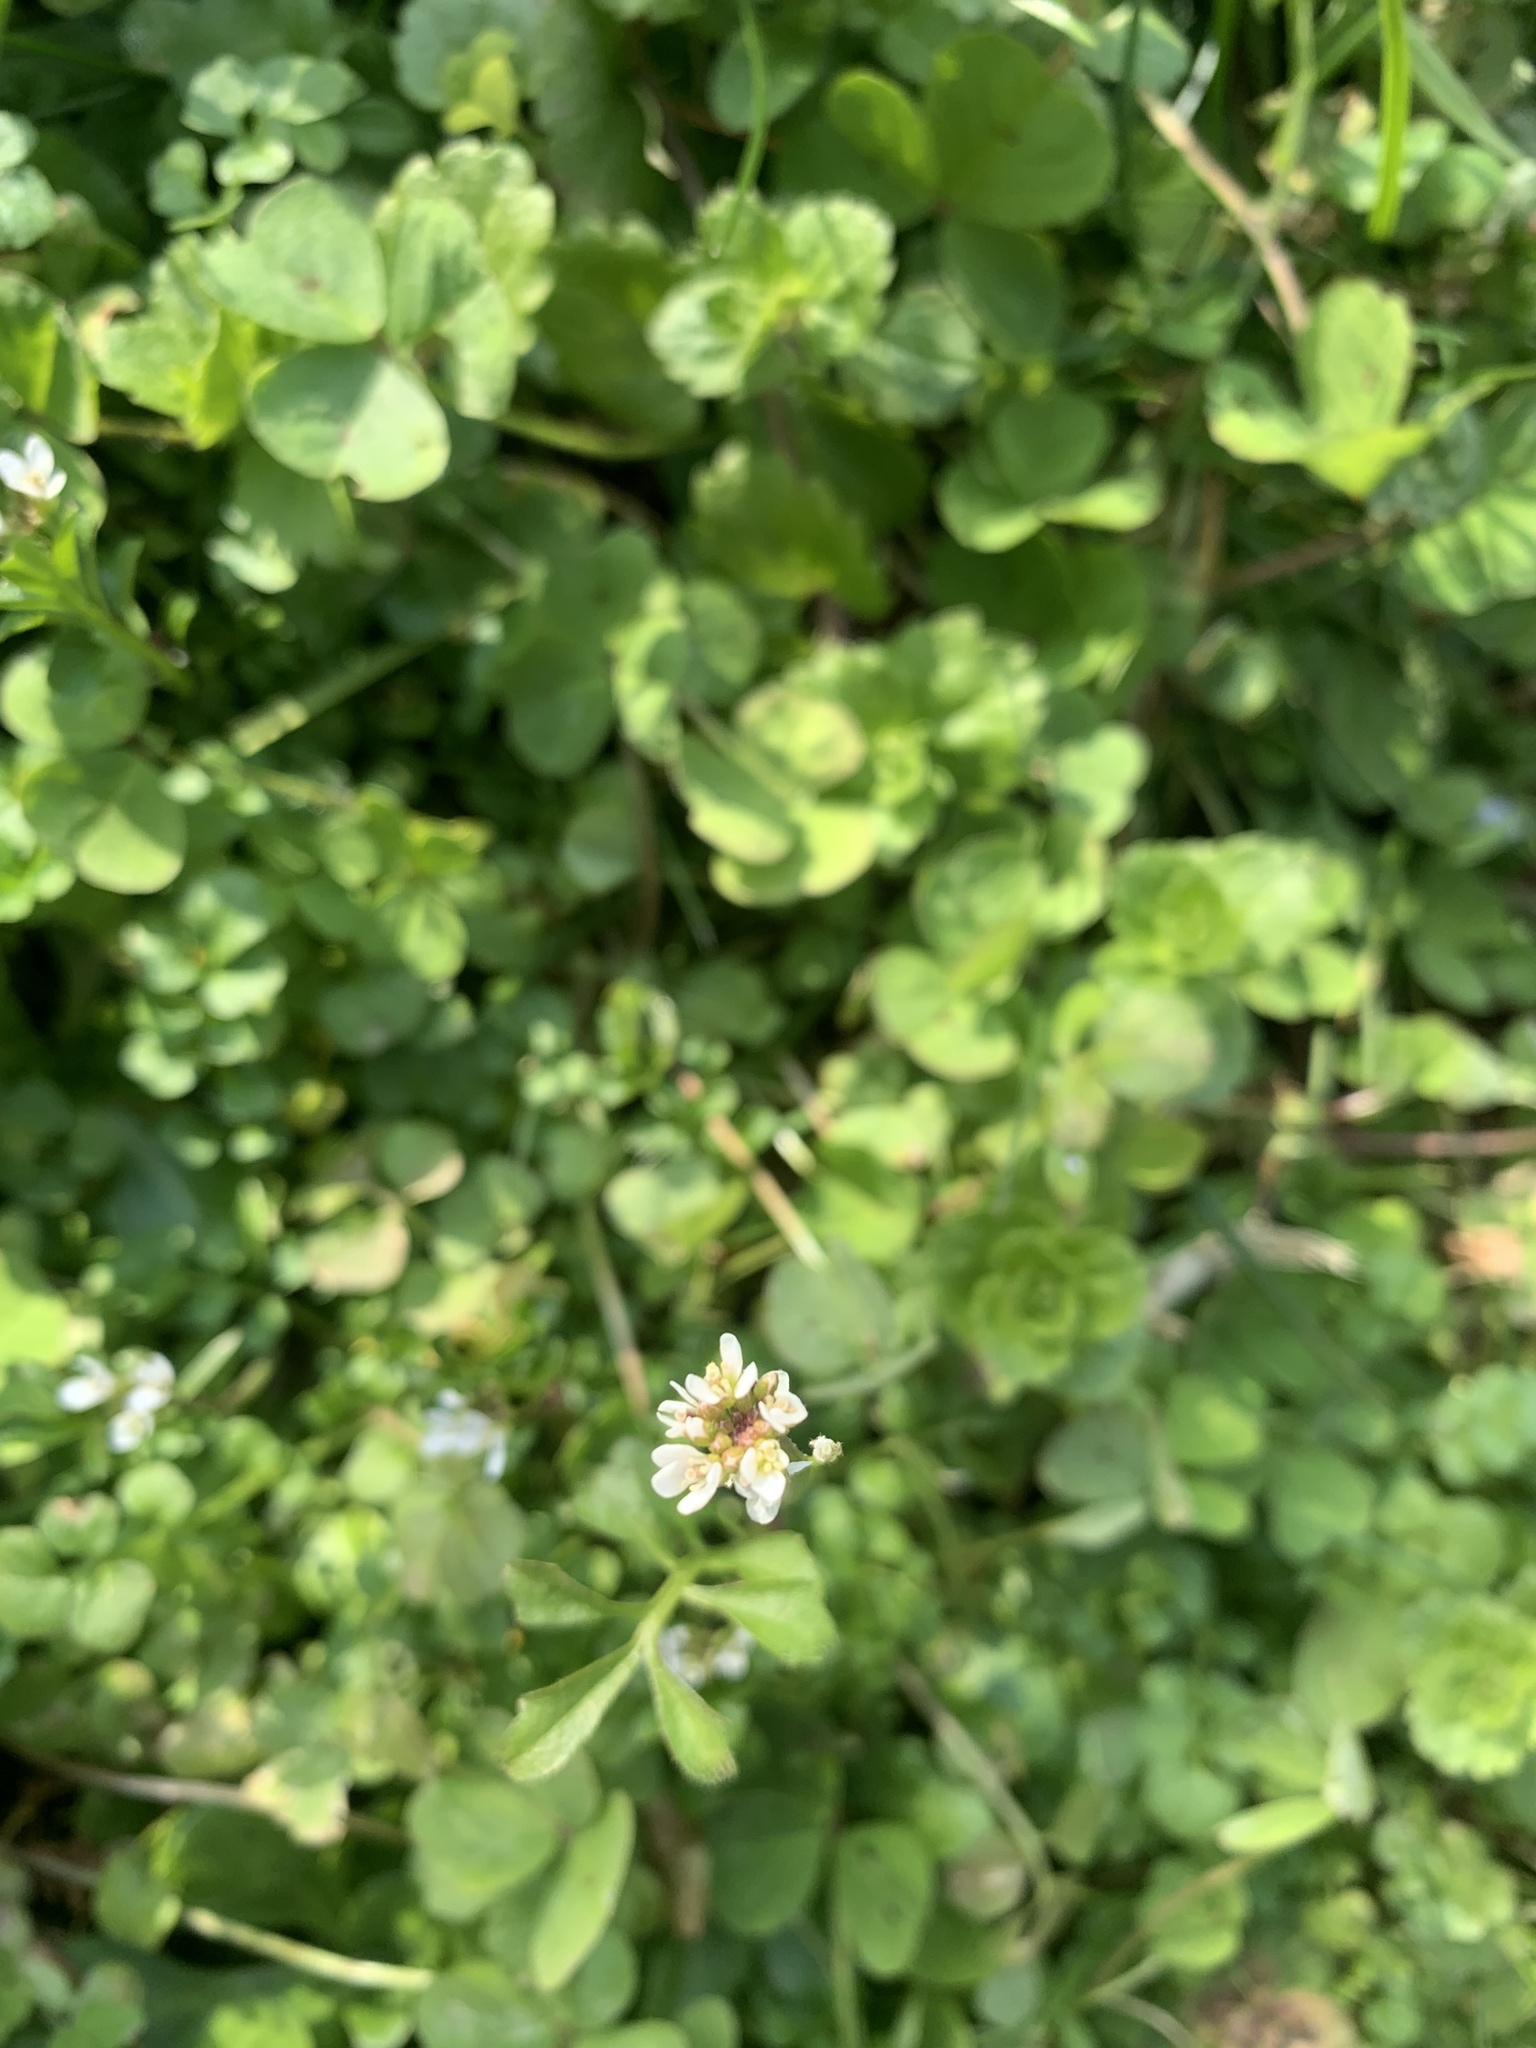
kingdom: Plantae
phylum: Tracheophyta
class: Magnoliopsida
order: Brassicales
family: Brassicaceae
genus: Capsella
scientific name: Capsella bursa-pastoris
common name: Shepherd's purse
